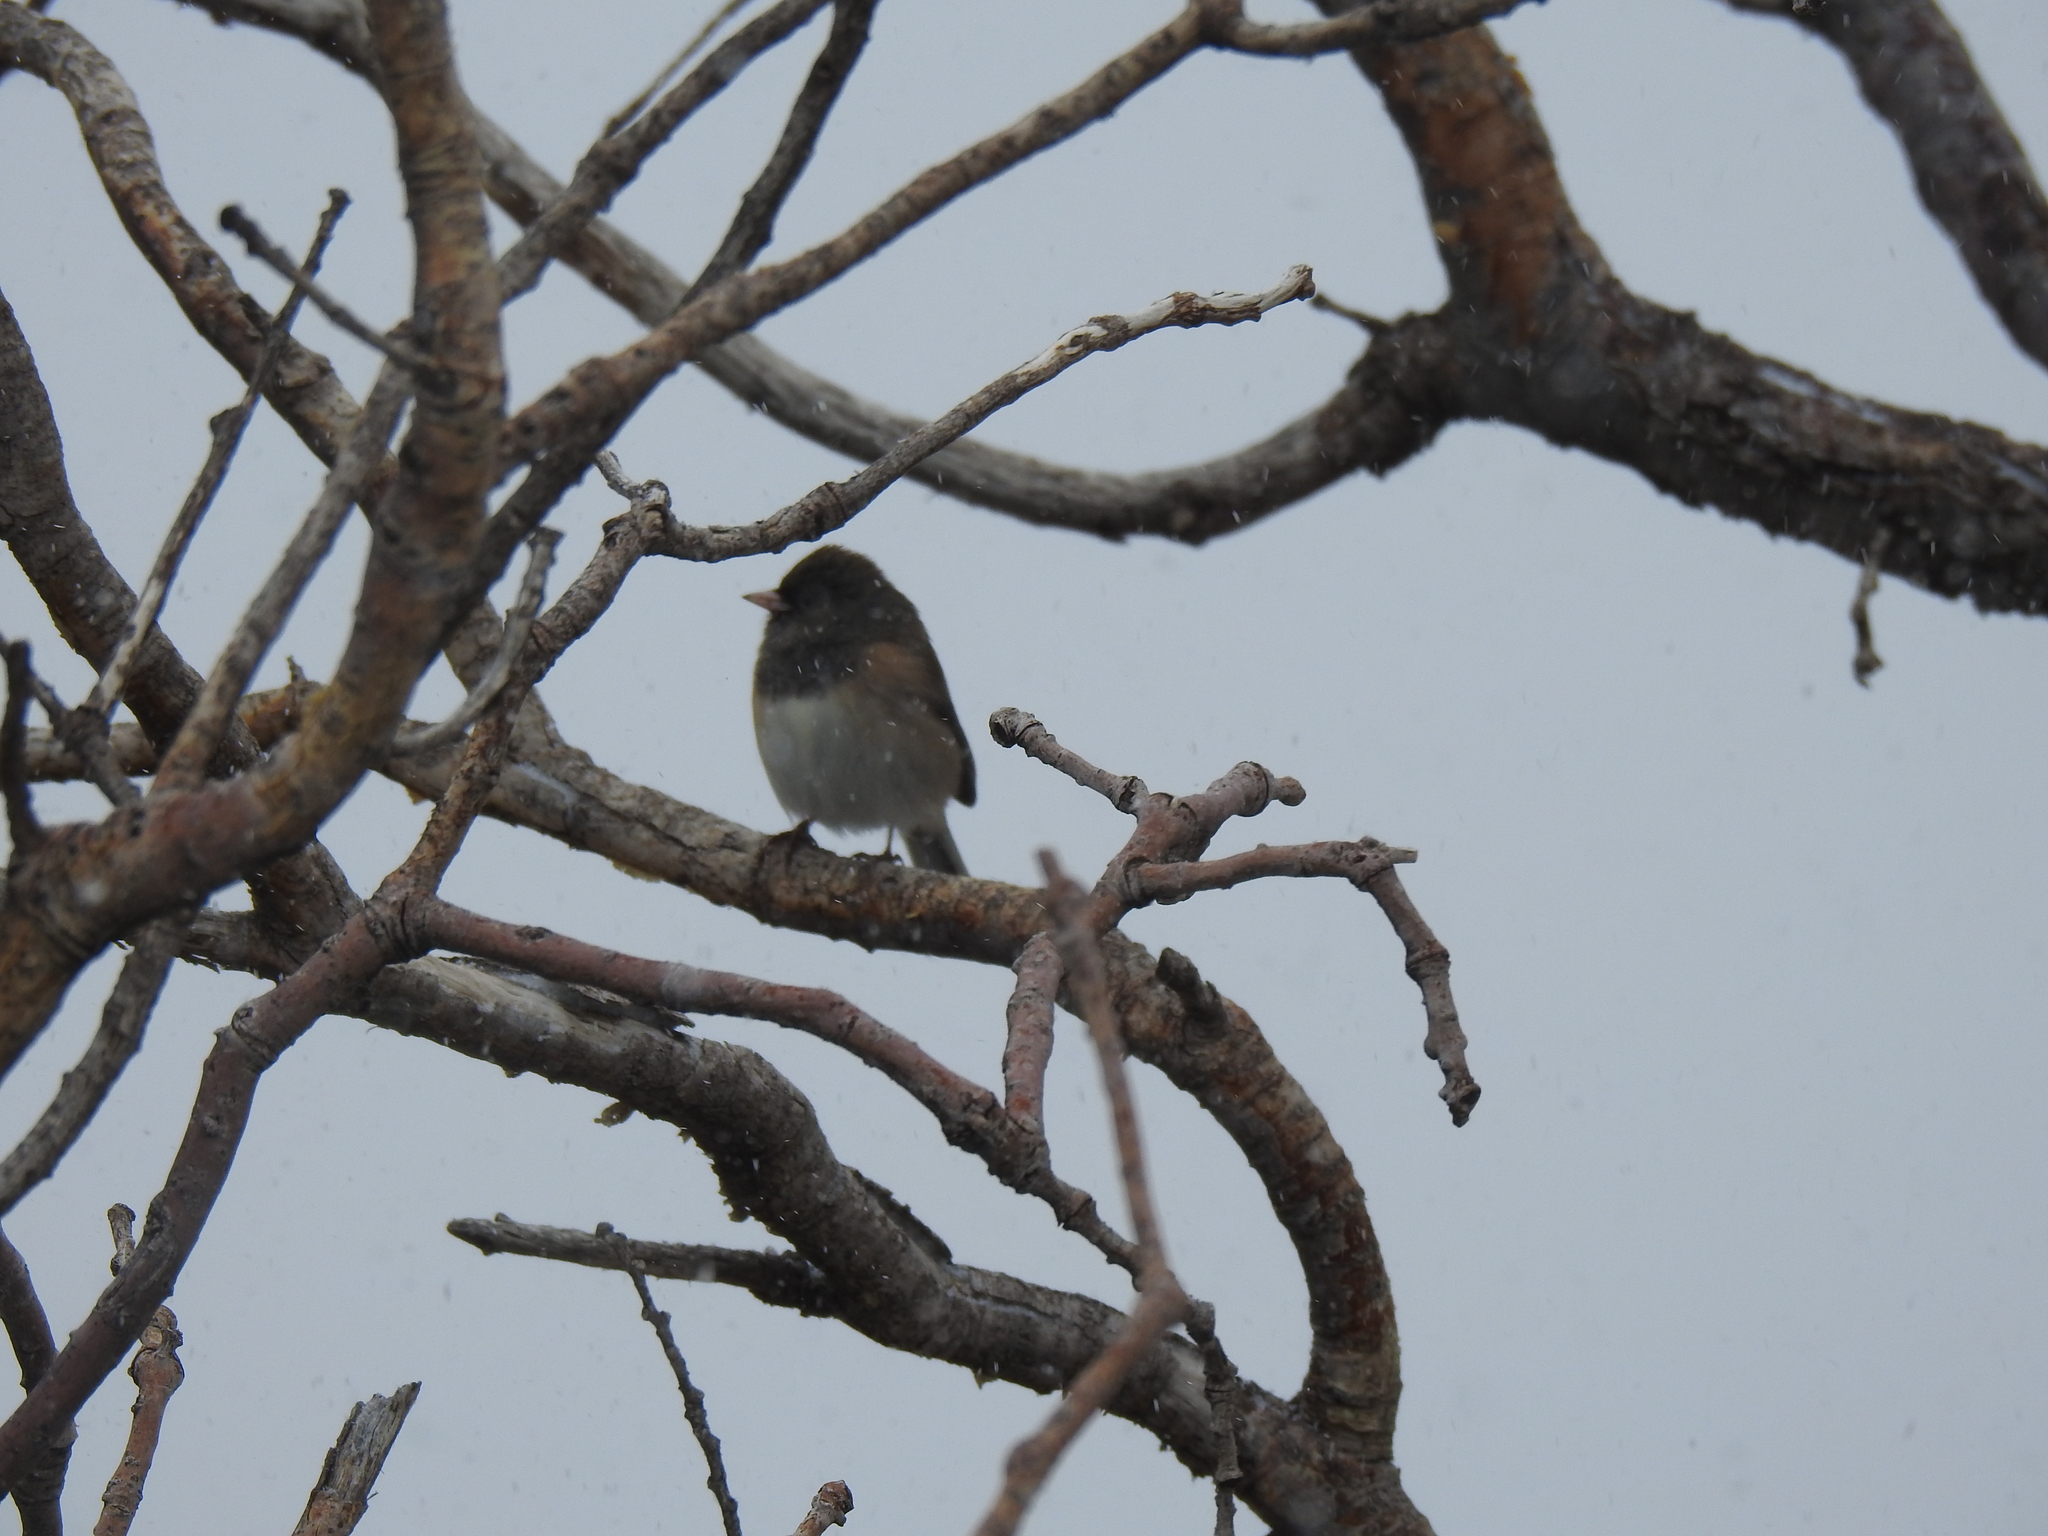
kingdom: Animalia
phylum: Chordata
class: Aves
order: Passeriformes
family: Passerellidae
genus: Junco
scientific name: Junco hyemalis
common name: Dark-eyed junco
